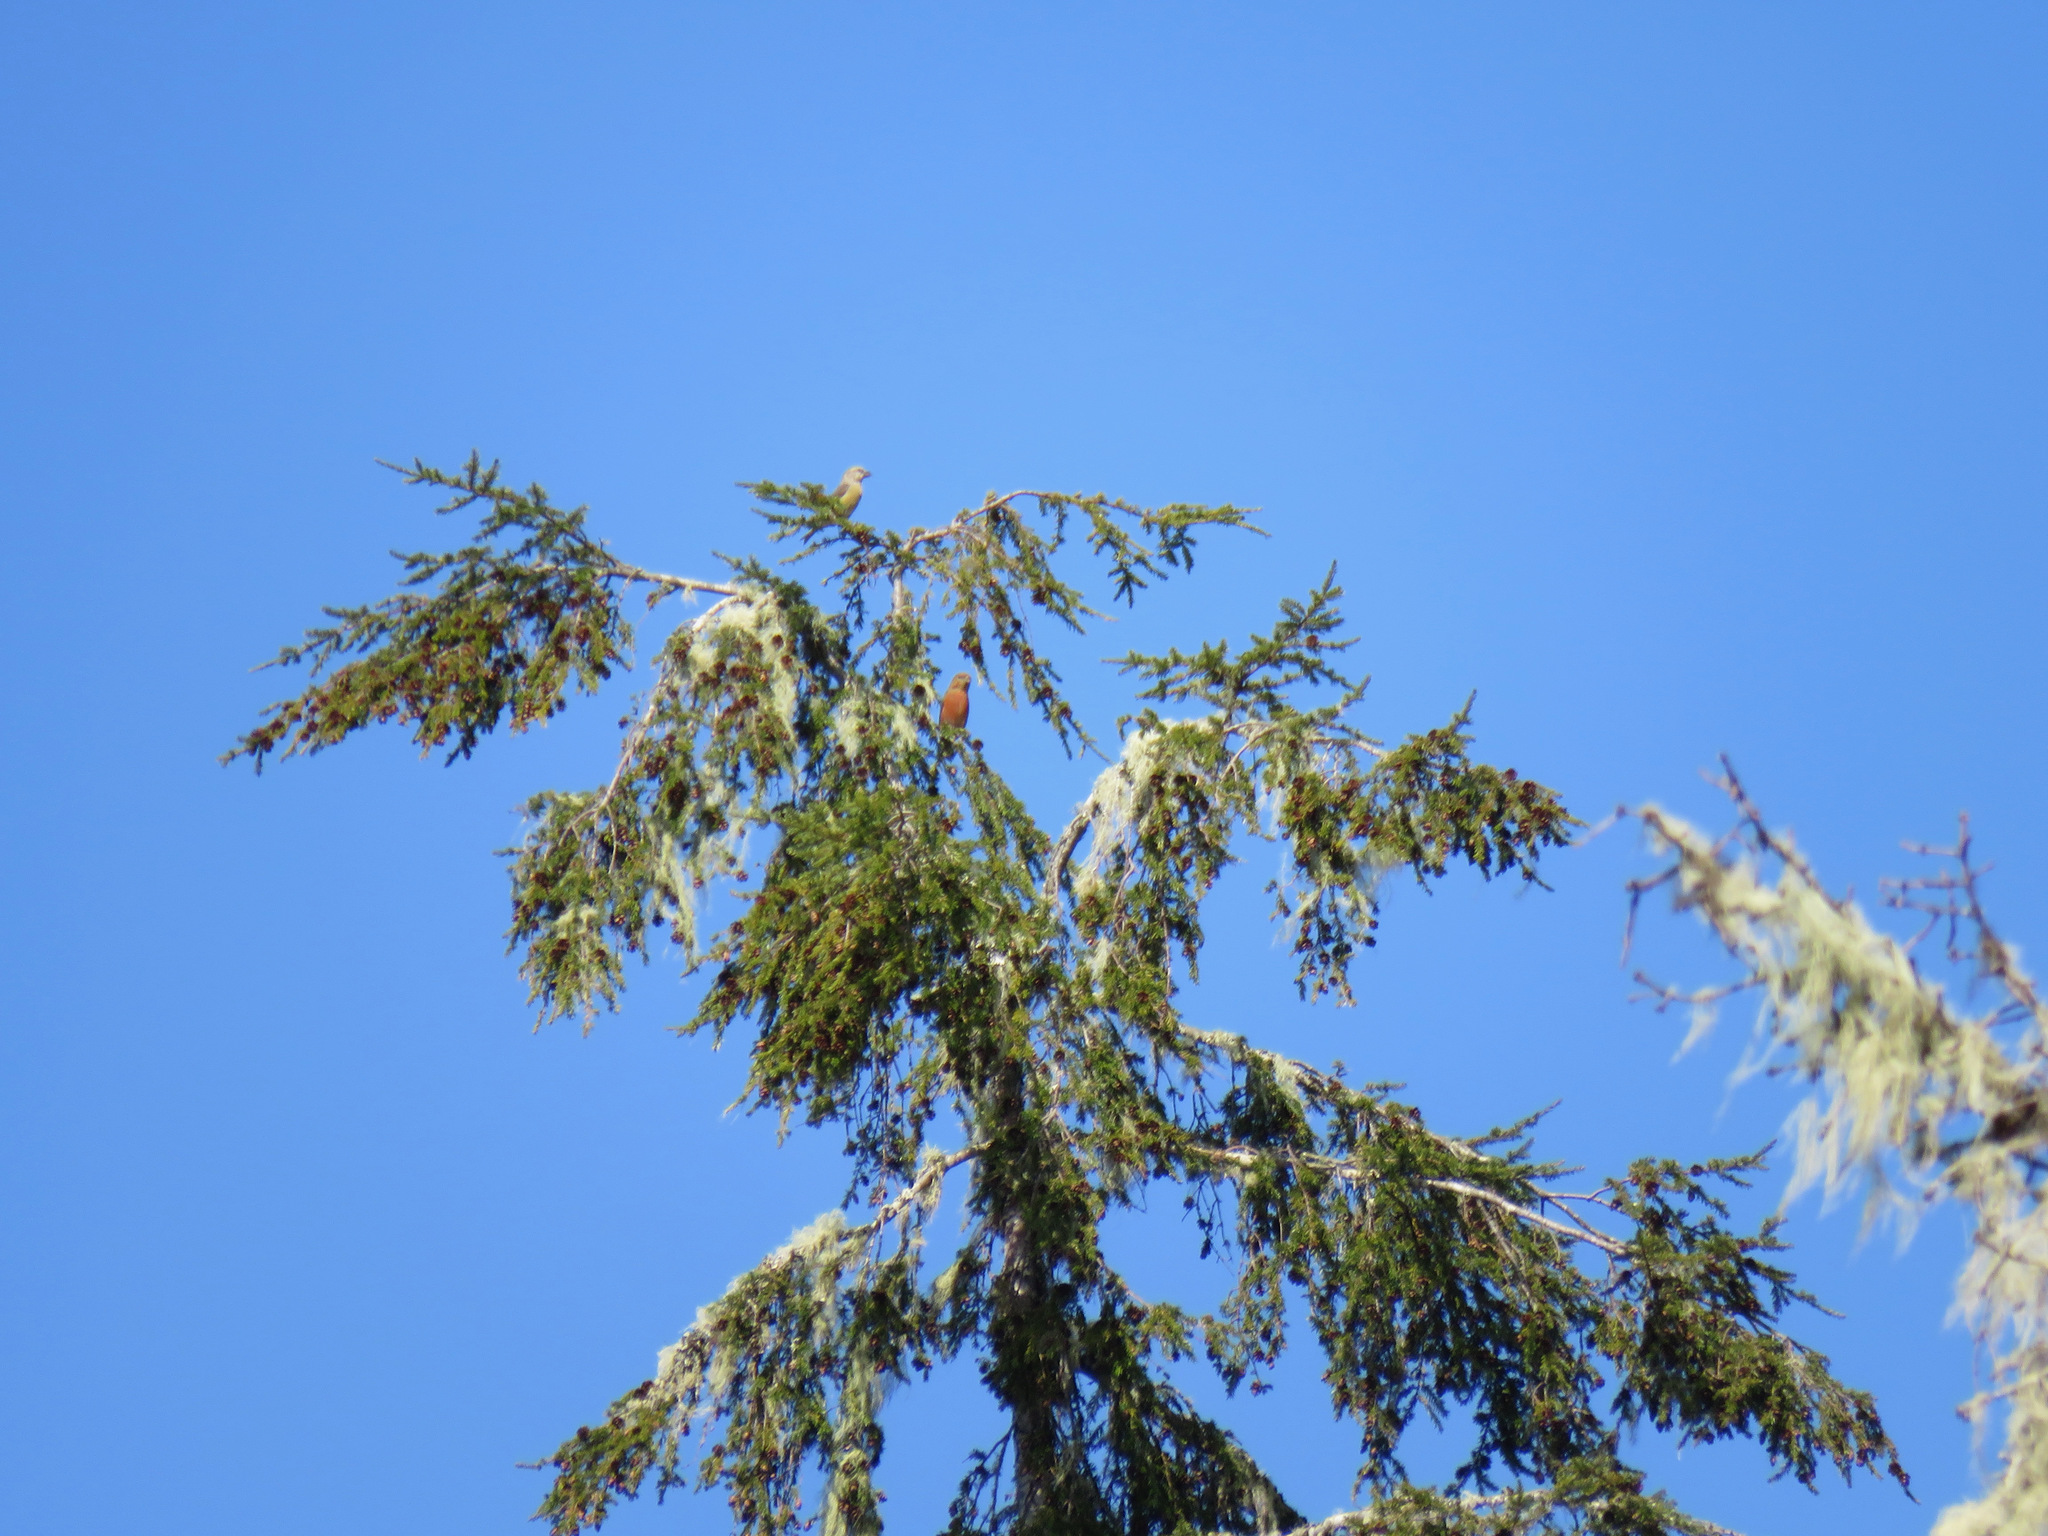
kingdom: Animalia
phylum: Chordata
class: Aves
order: Passeriformes
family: Fringillidae
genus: Loxia
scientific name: Loxia curvirostra
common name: Red crossbill
